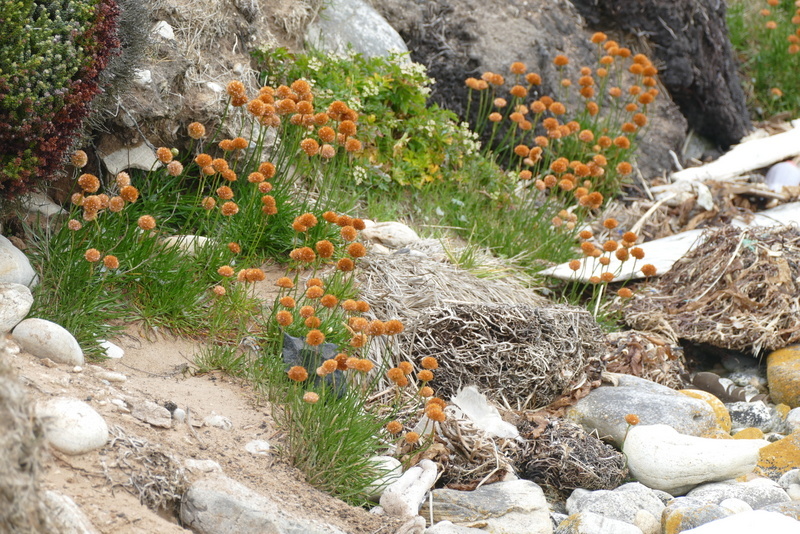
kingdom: Plantae
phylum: Tracheophyta
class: Magnoliopsida
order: Caryophyllales
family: Plumbaginaceae
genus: Armeria
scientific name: Armeria curvifolia
